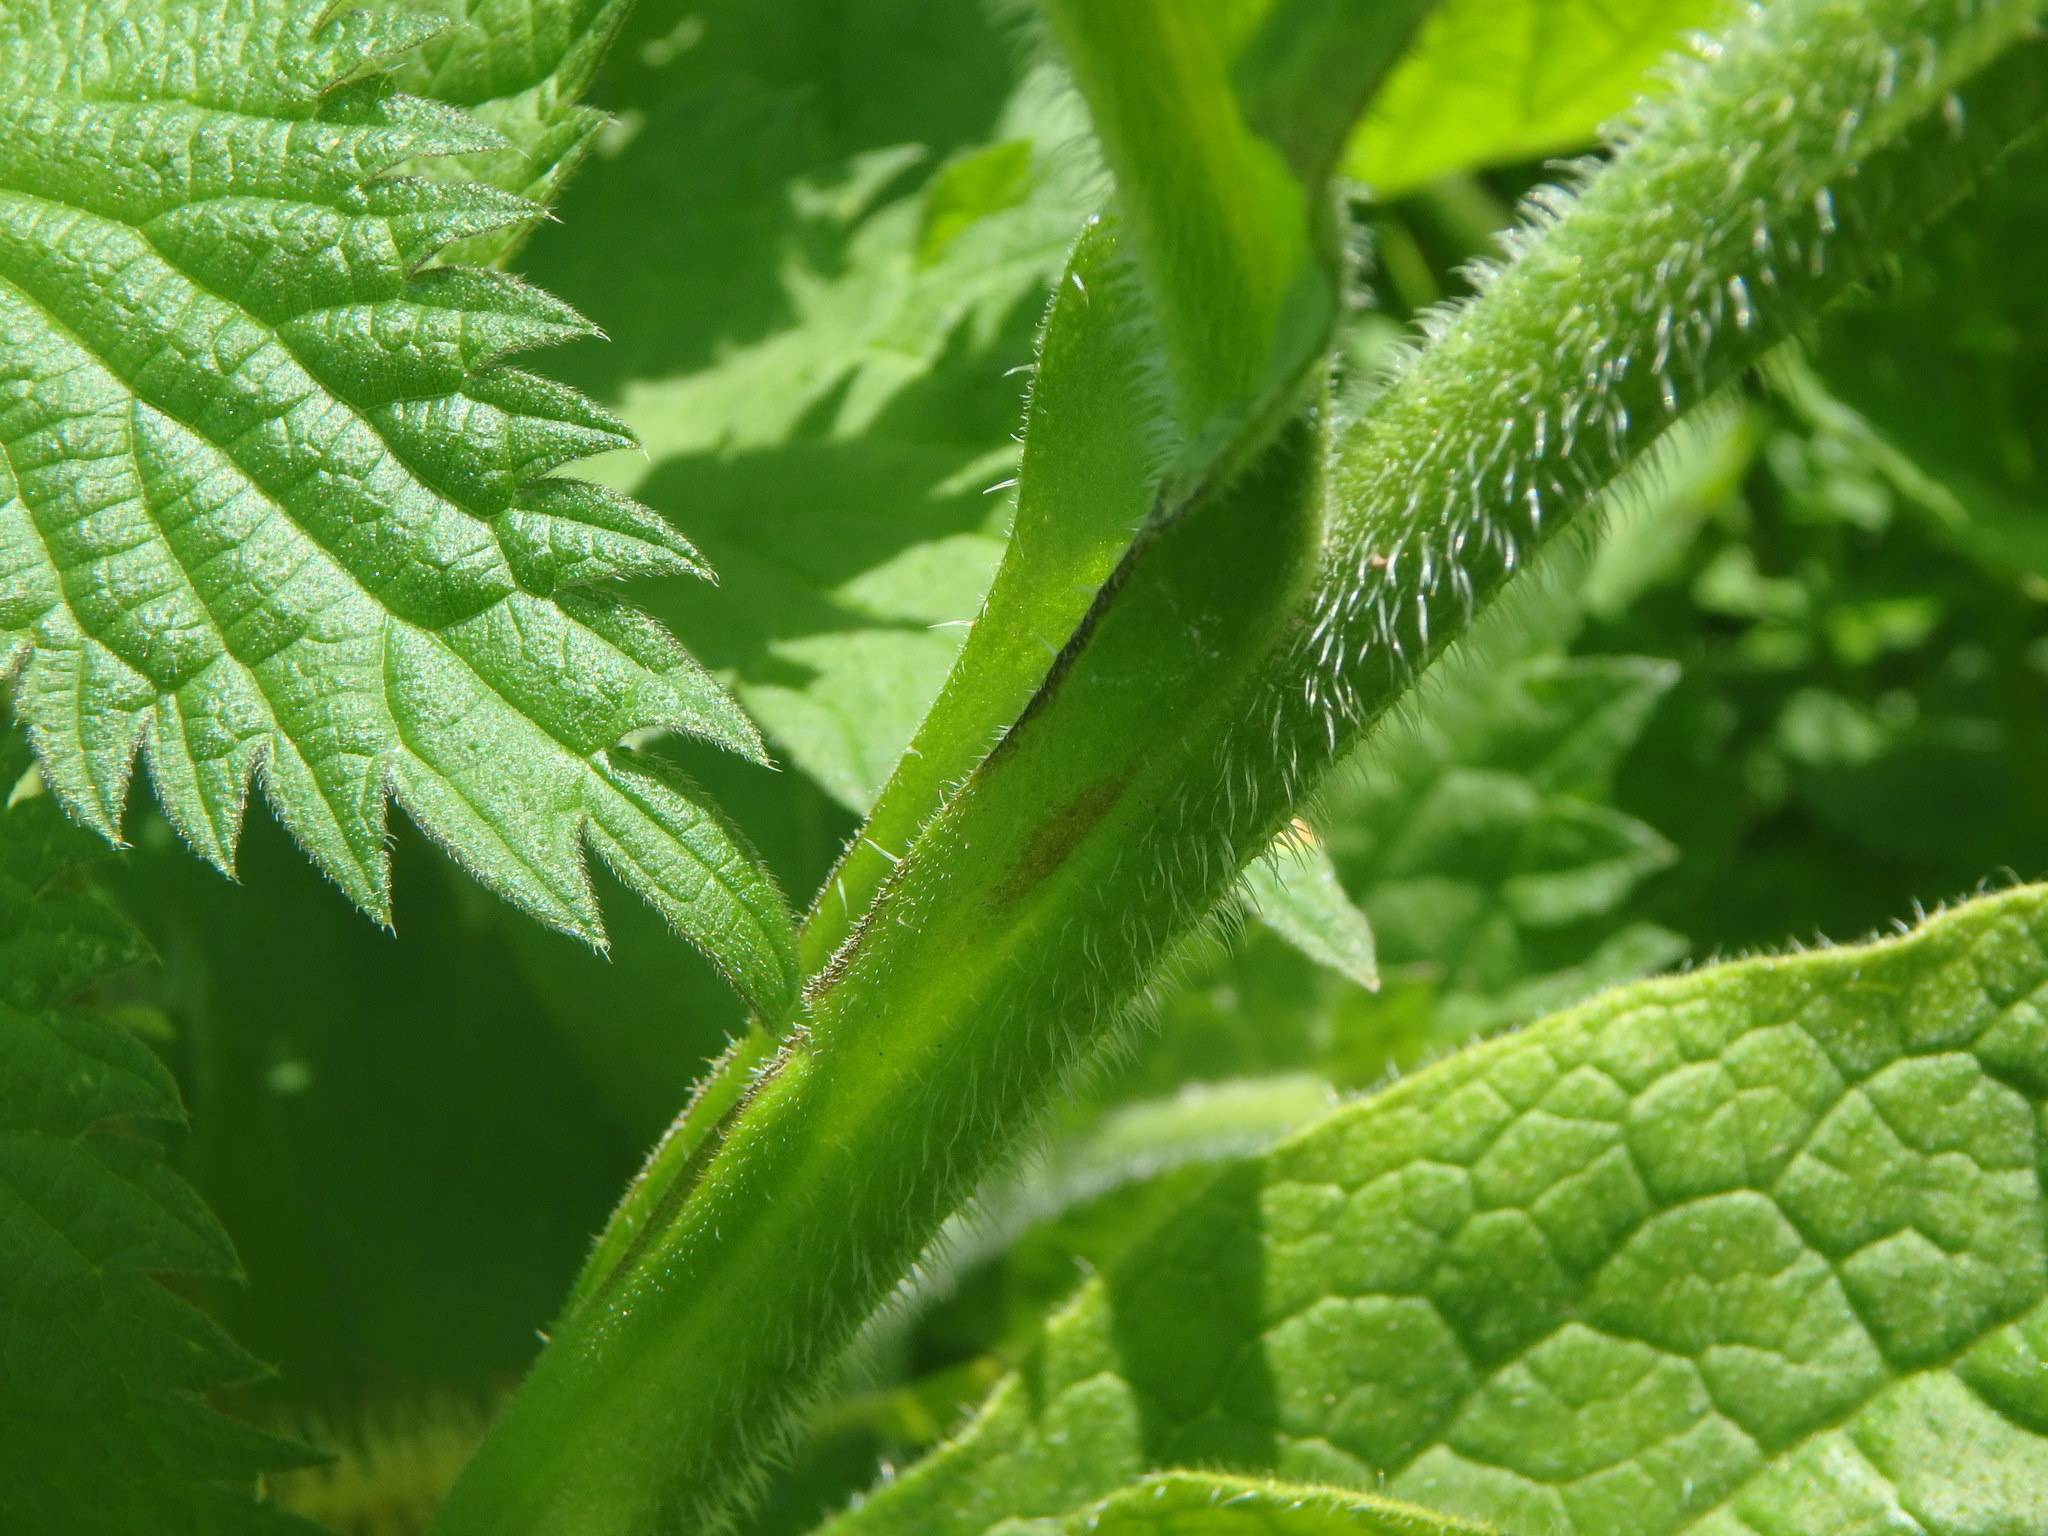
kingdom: Plantae
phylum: Tracheophyta
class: Magnoliopsida
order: Boraginales
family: Boraginaceae
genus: Symphytum
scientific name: Symphytum uplandicum
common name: Russian comfrey
